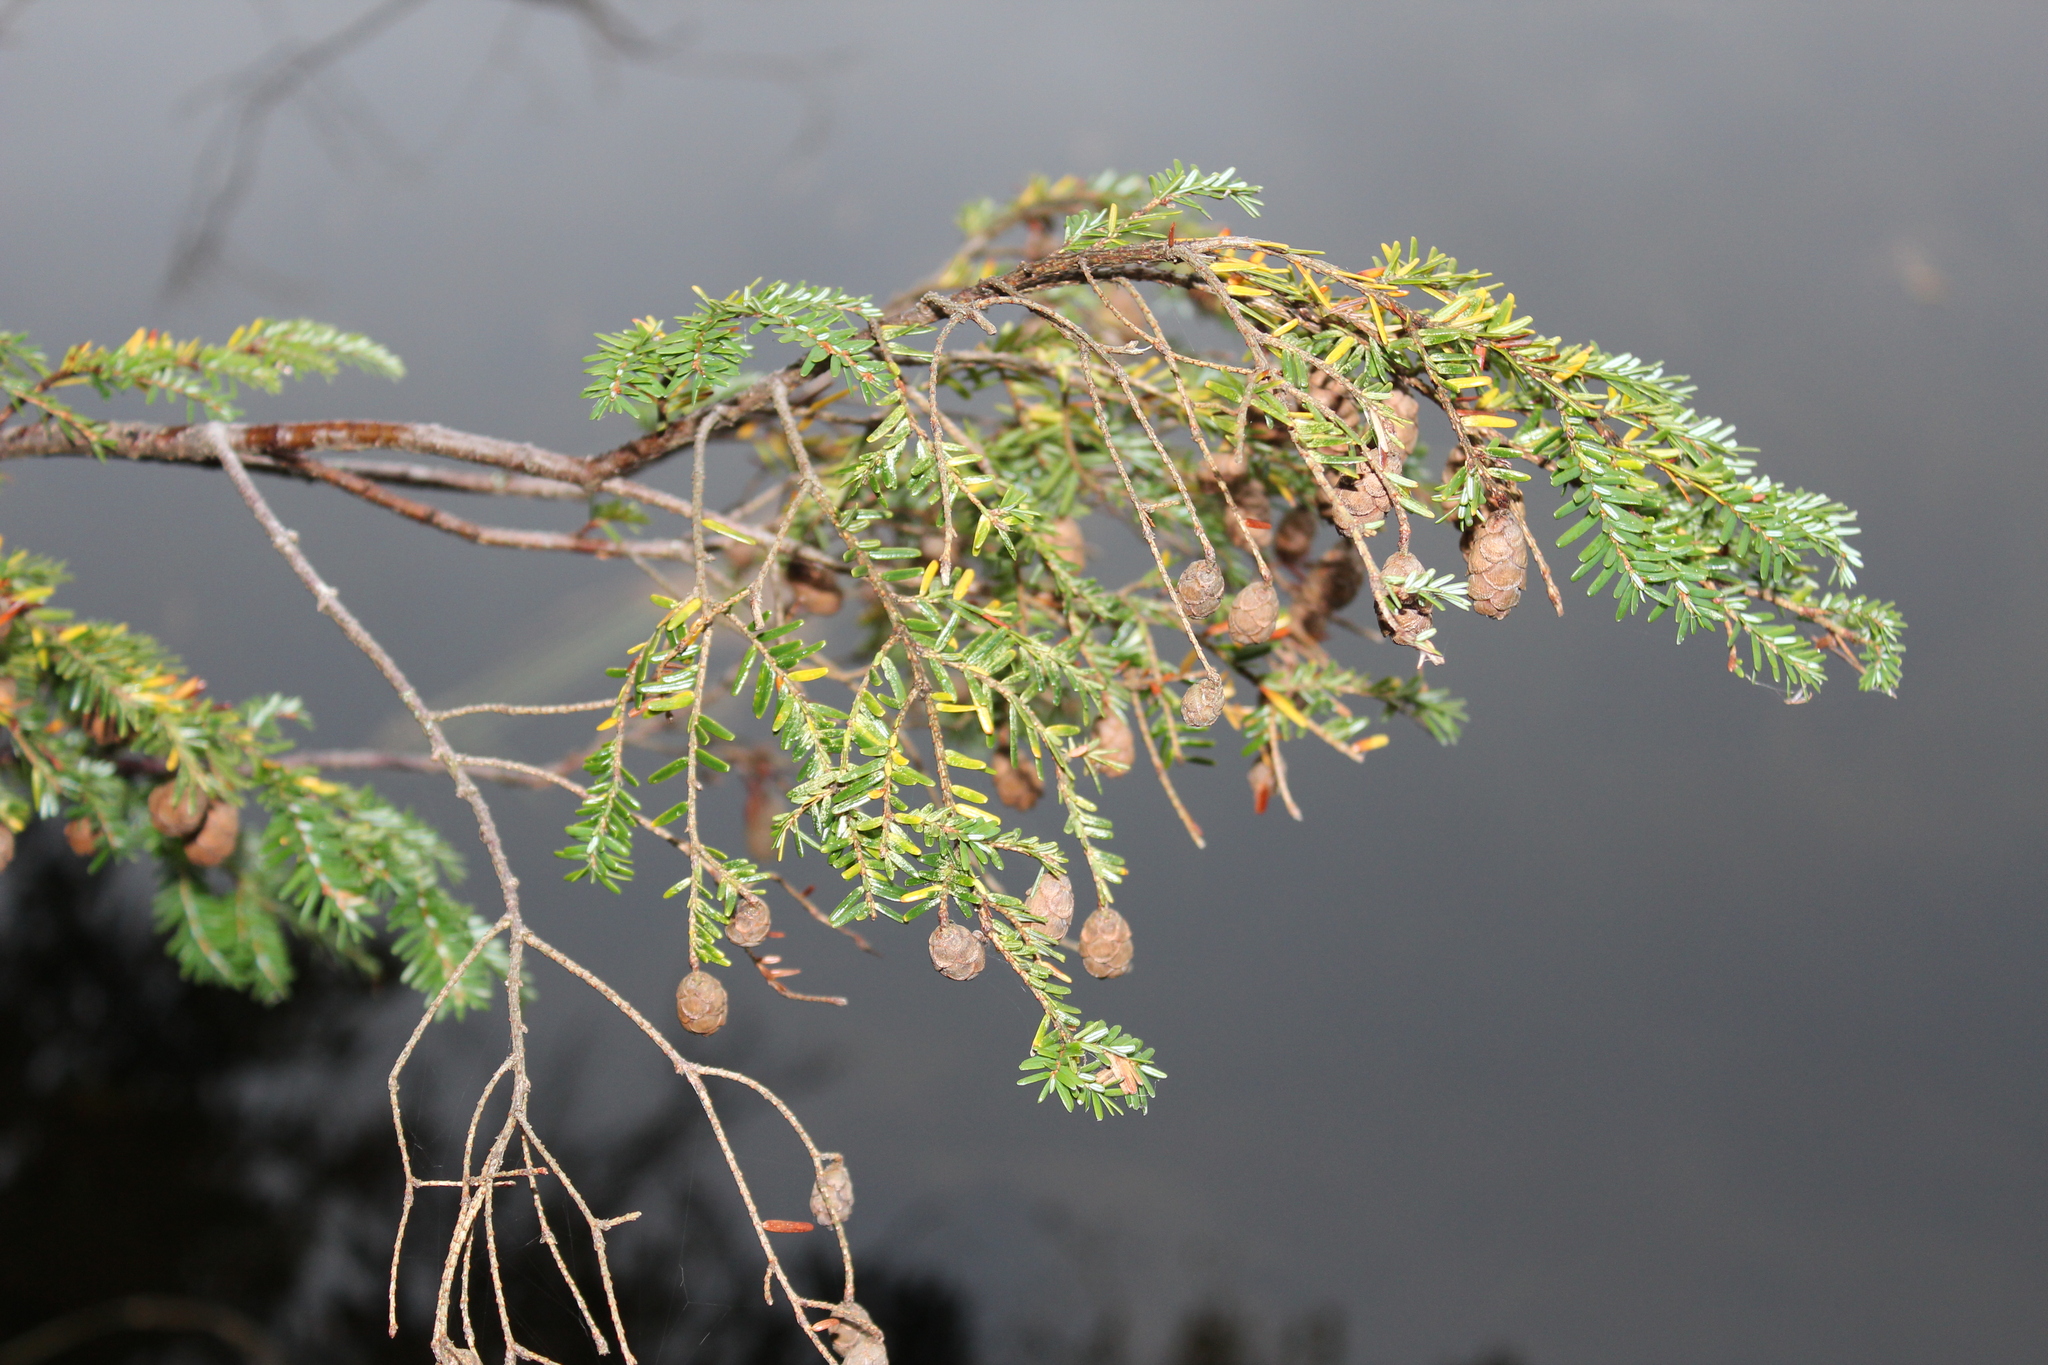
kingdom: Plantae
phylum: Tracheophyta
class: Pinopsida
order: Pinales
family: Pinaceae
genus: Tsuga
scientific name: Tsuga canadensis
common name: Eastern hemlock
